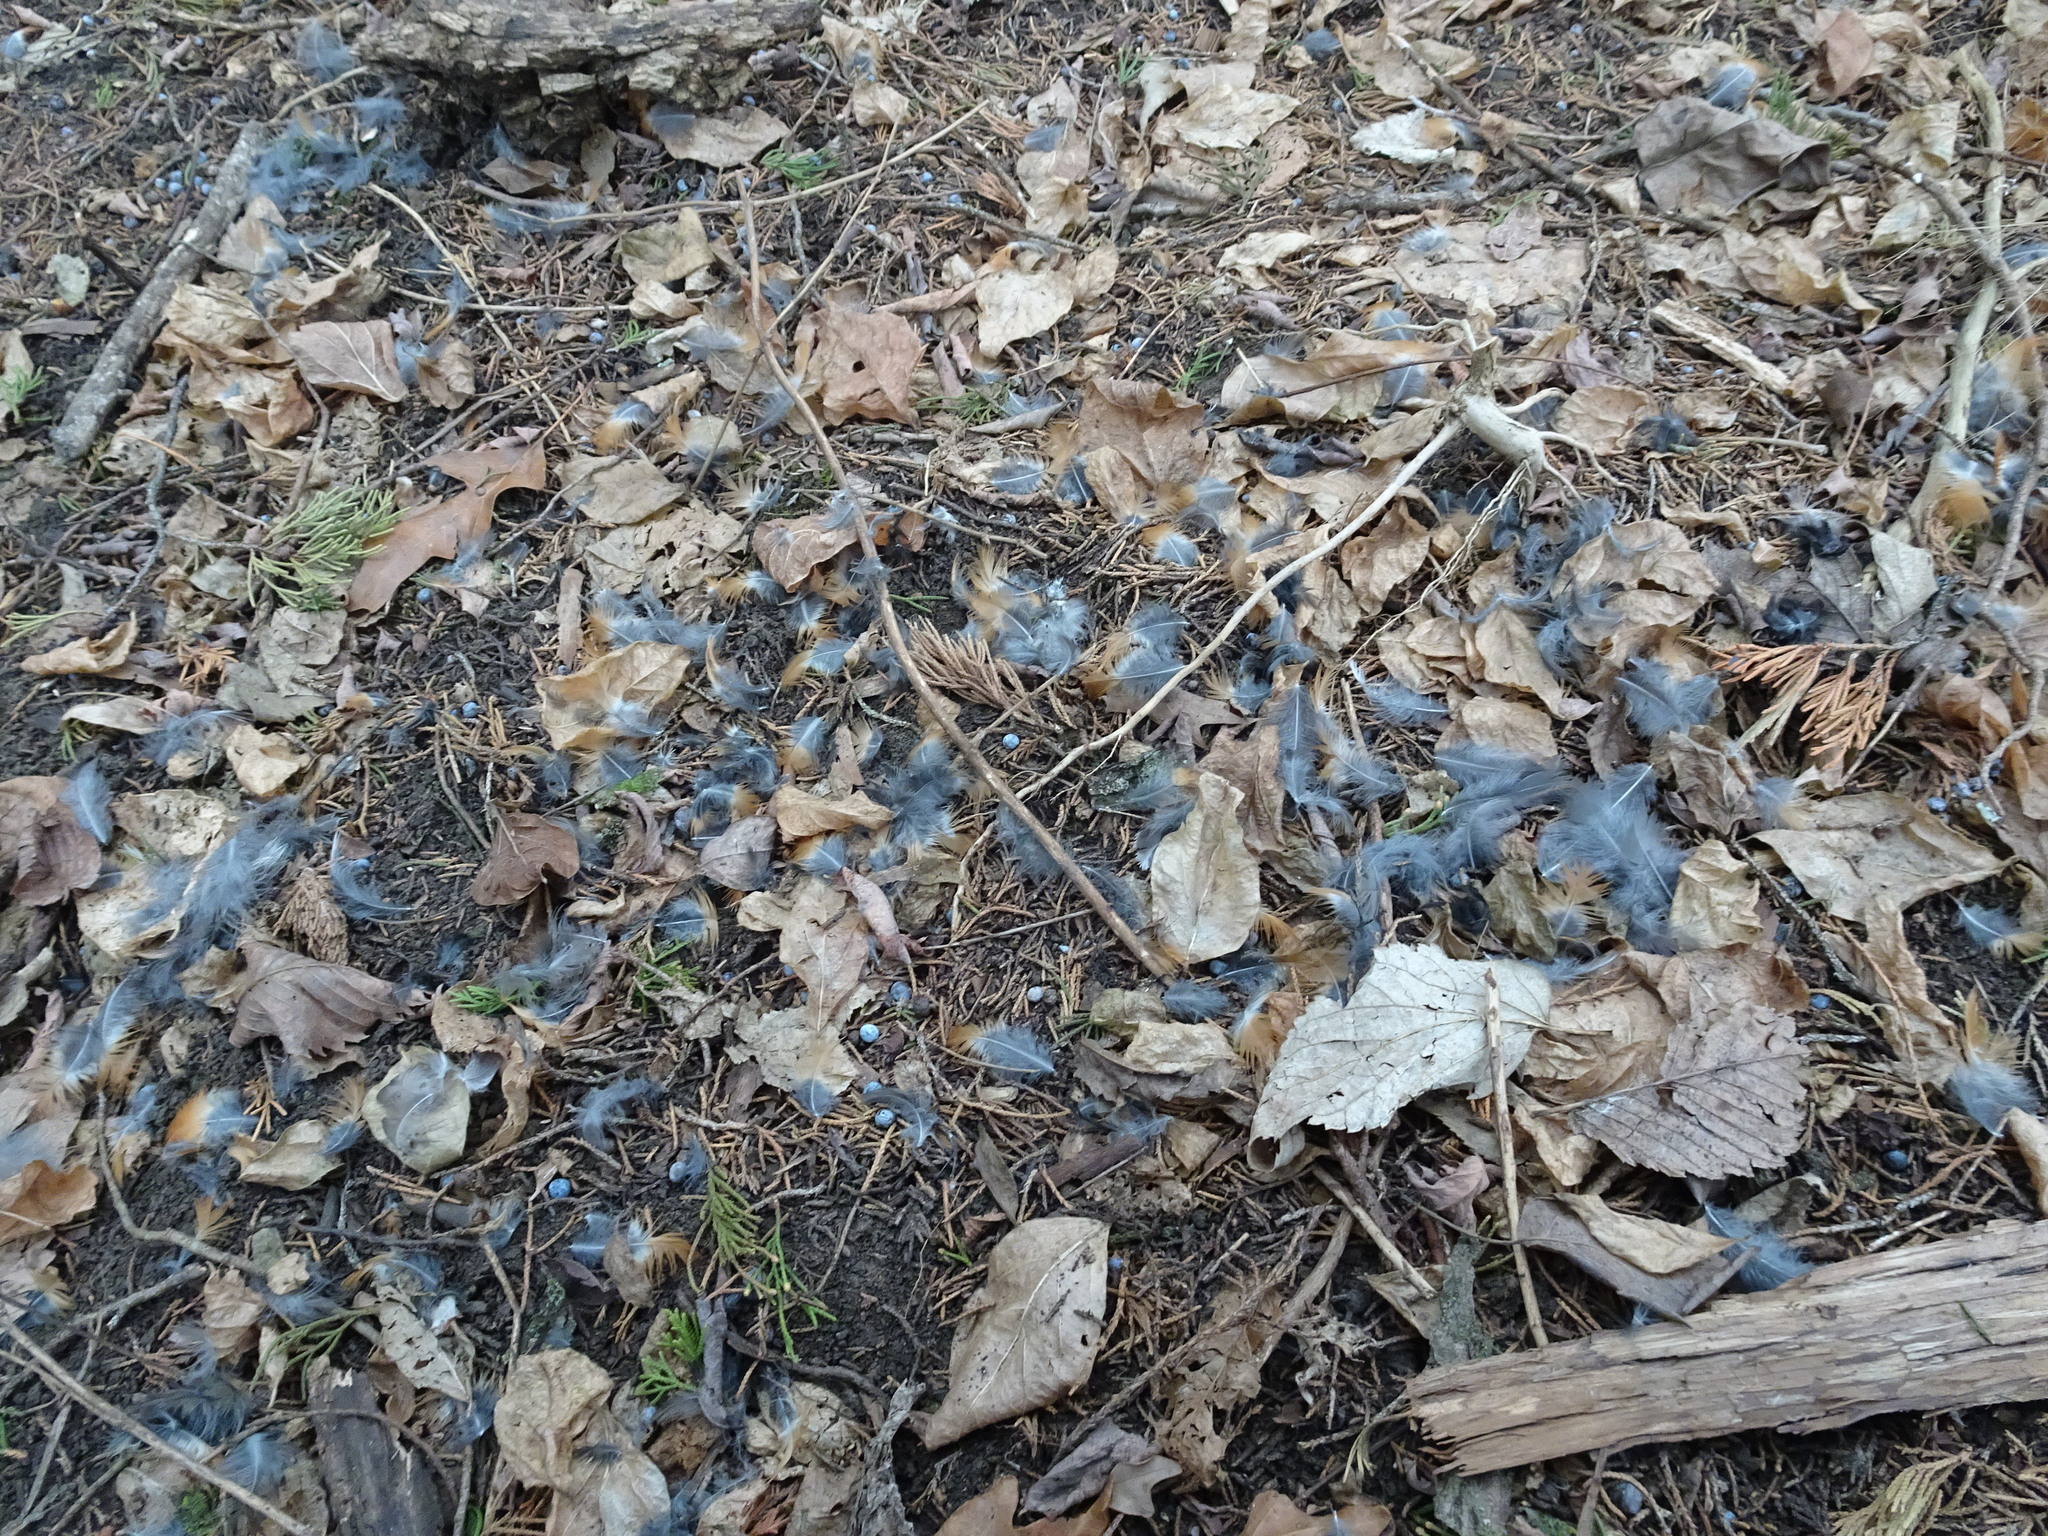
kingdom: Animalia
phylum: Chordata
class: Aves
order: Passeriformes
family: Turdidae
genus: Turdus
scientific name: Turdus migratorius
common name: American robin
